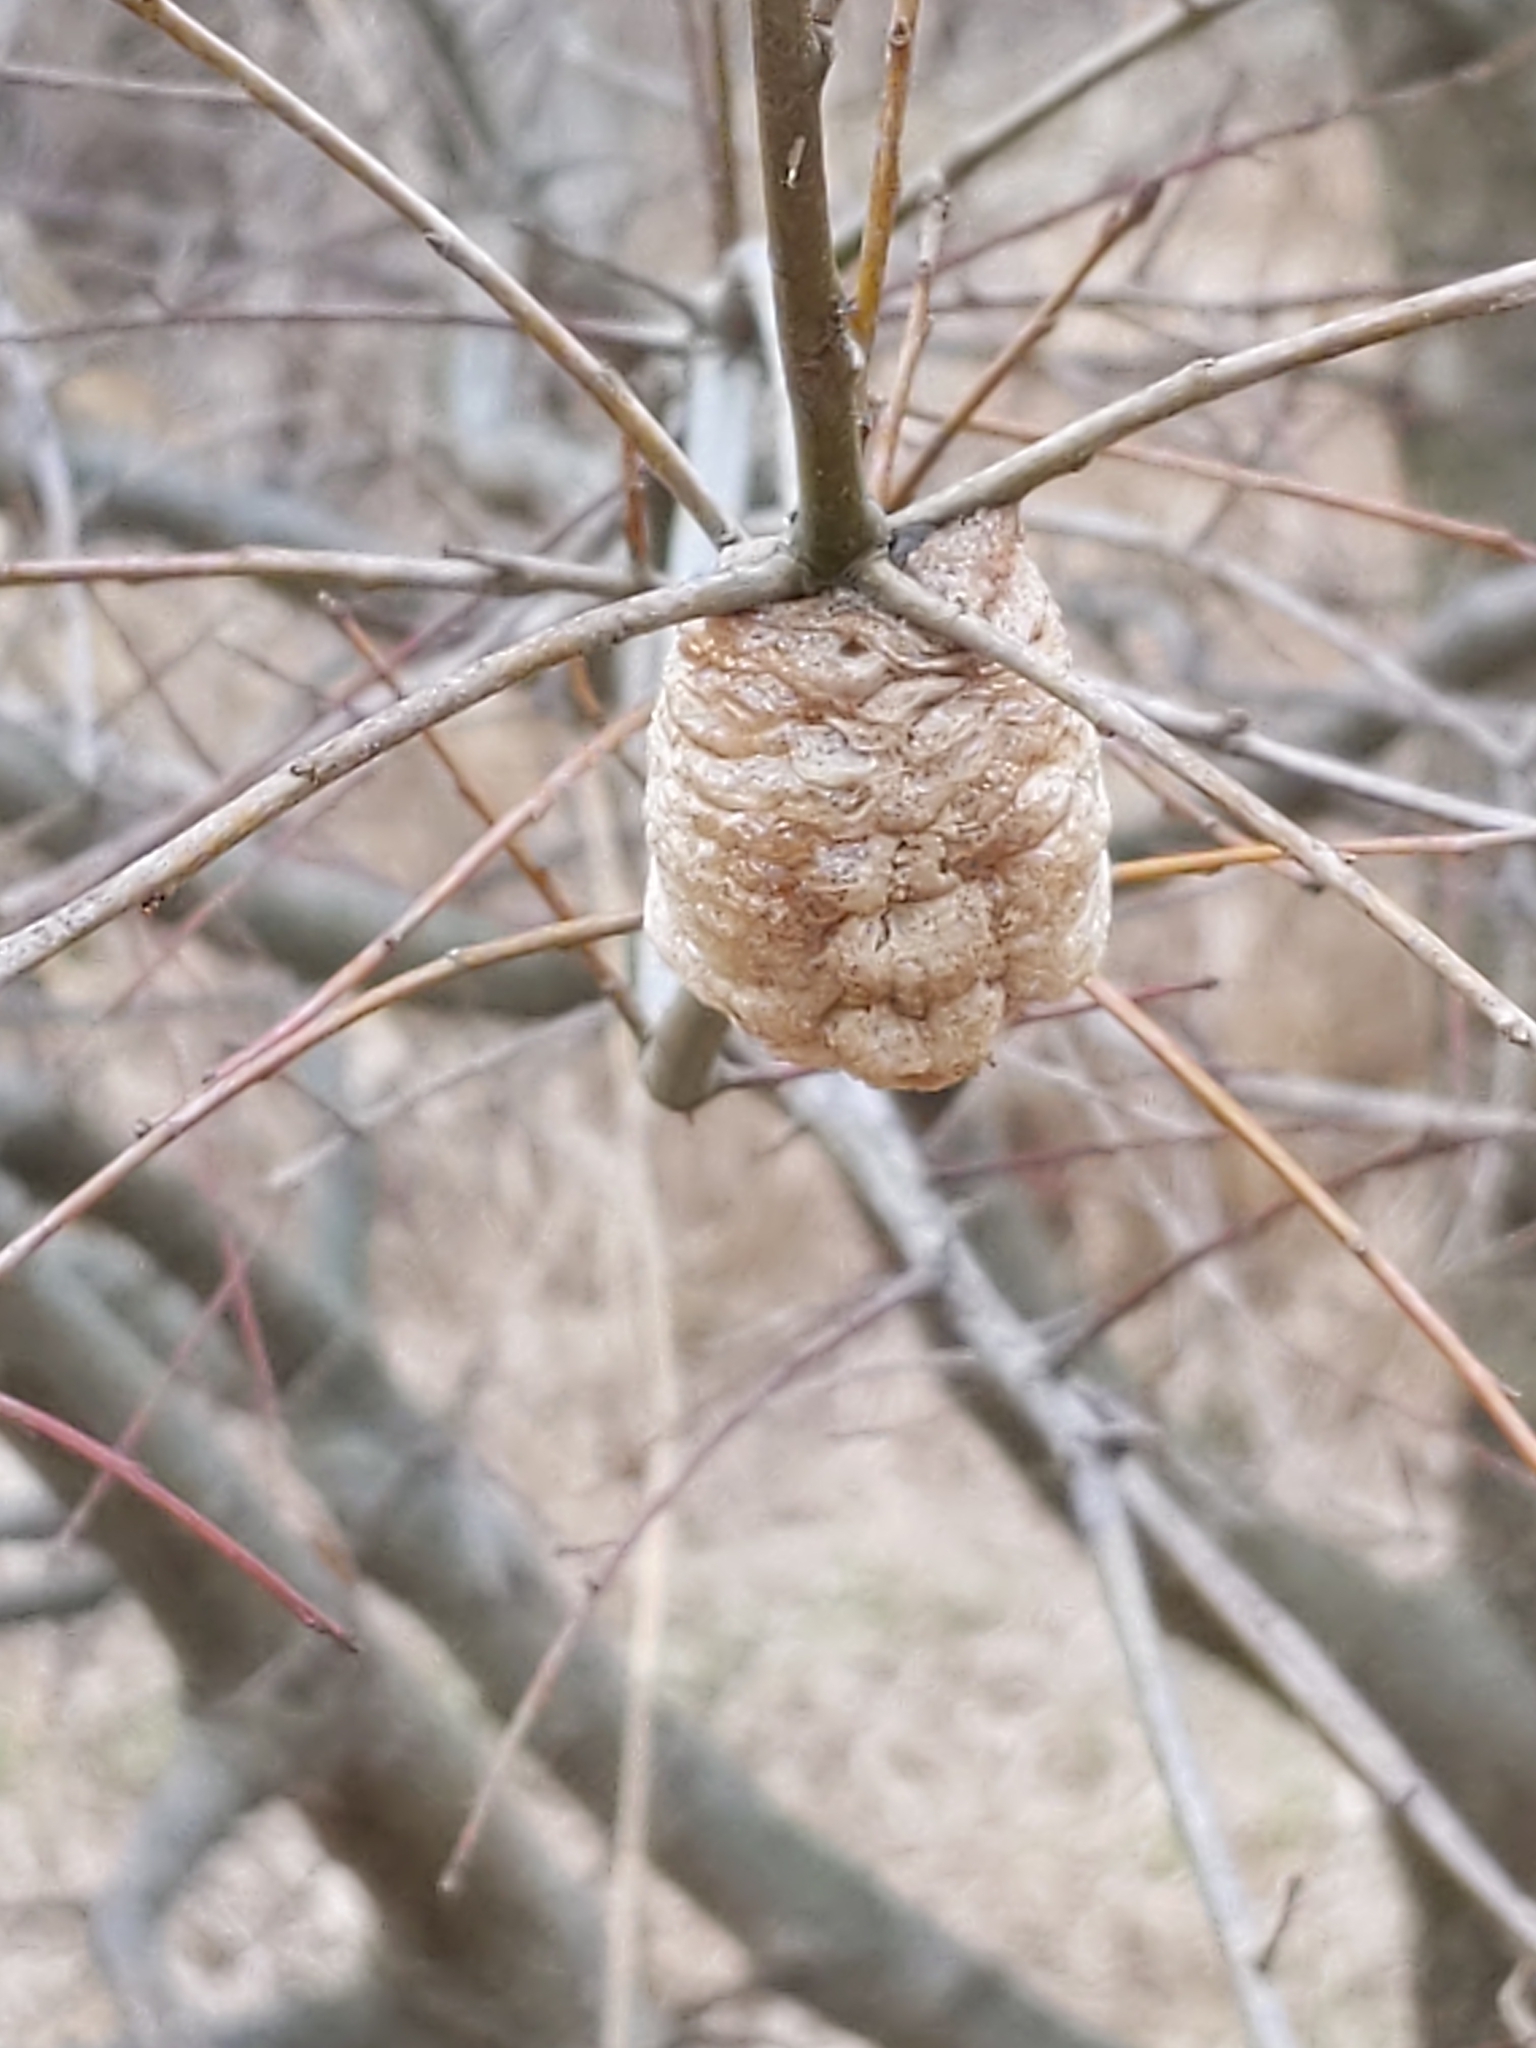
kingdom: Animalia
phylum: Arthropoda
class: Insecta
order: Mantodea
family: Mantidae
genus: Tenodera
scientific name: Tenodera sinensis
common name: Chinese mantis
